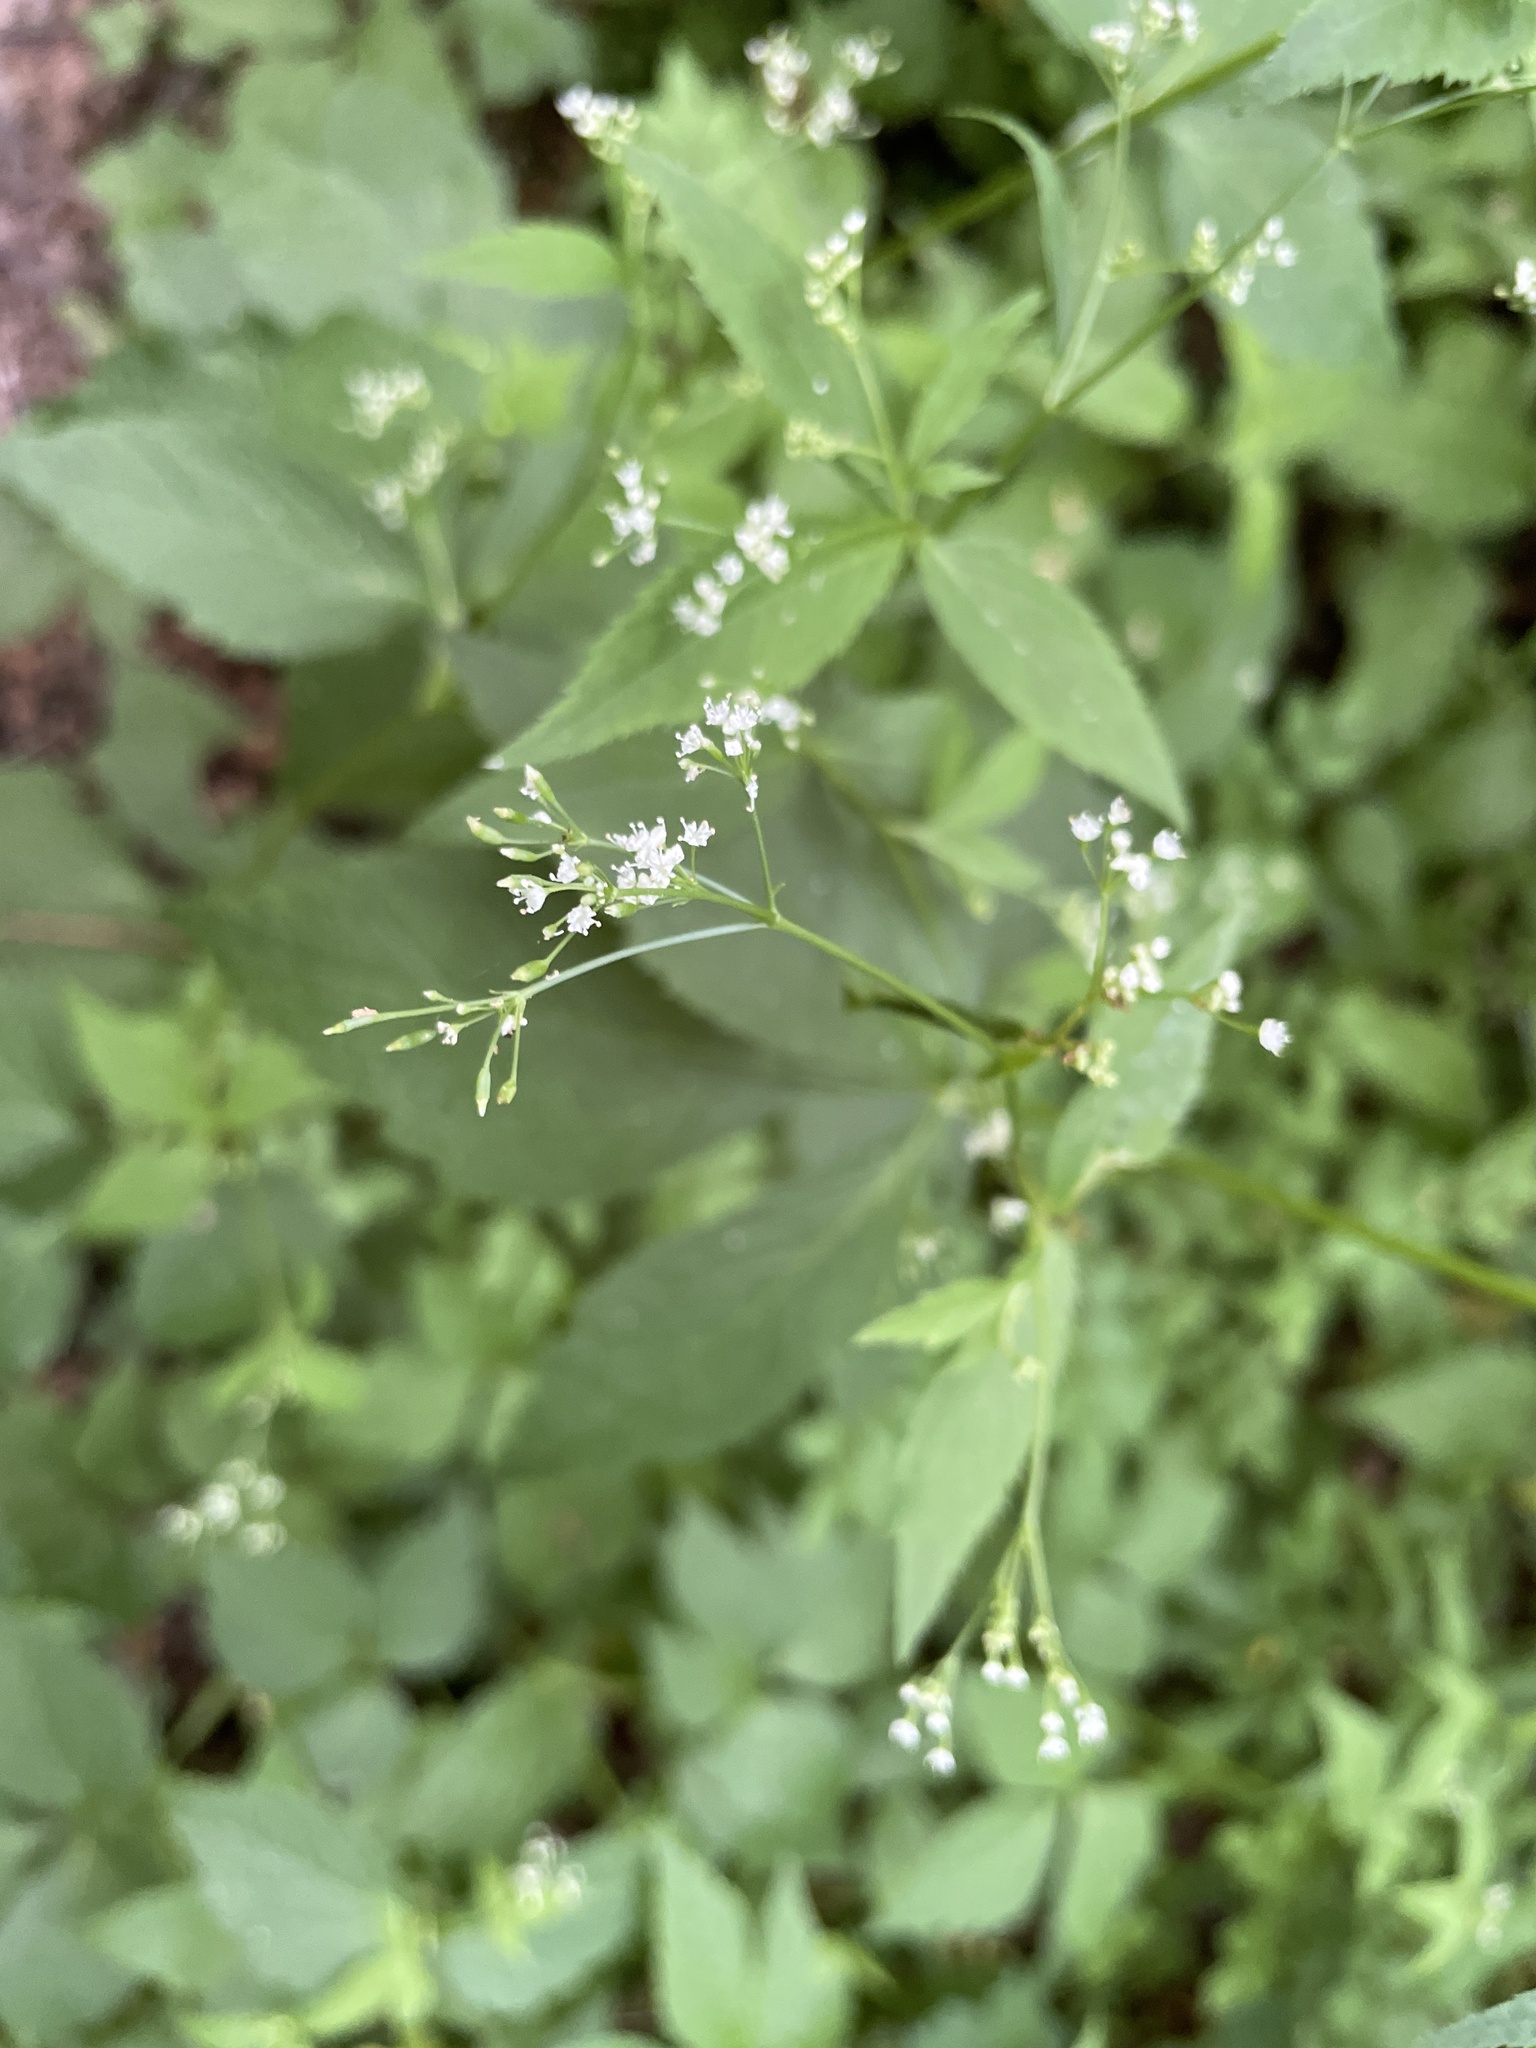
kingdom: Plantae
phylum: Tracheophyta
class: Magnoliopsida
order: Apiales
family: Apiaceae
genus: Cryptotaenia
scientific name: Cryptotaenia canadensis
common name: Honewort
